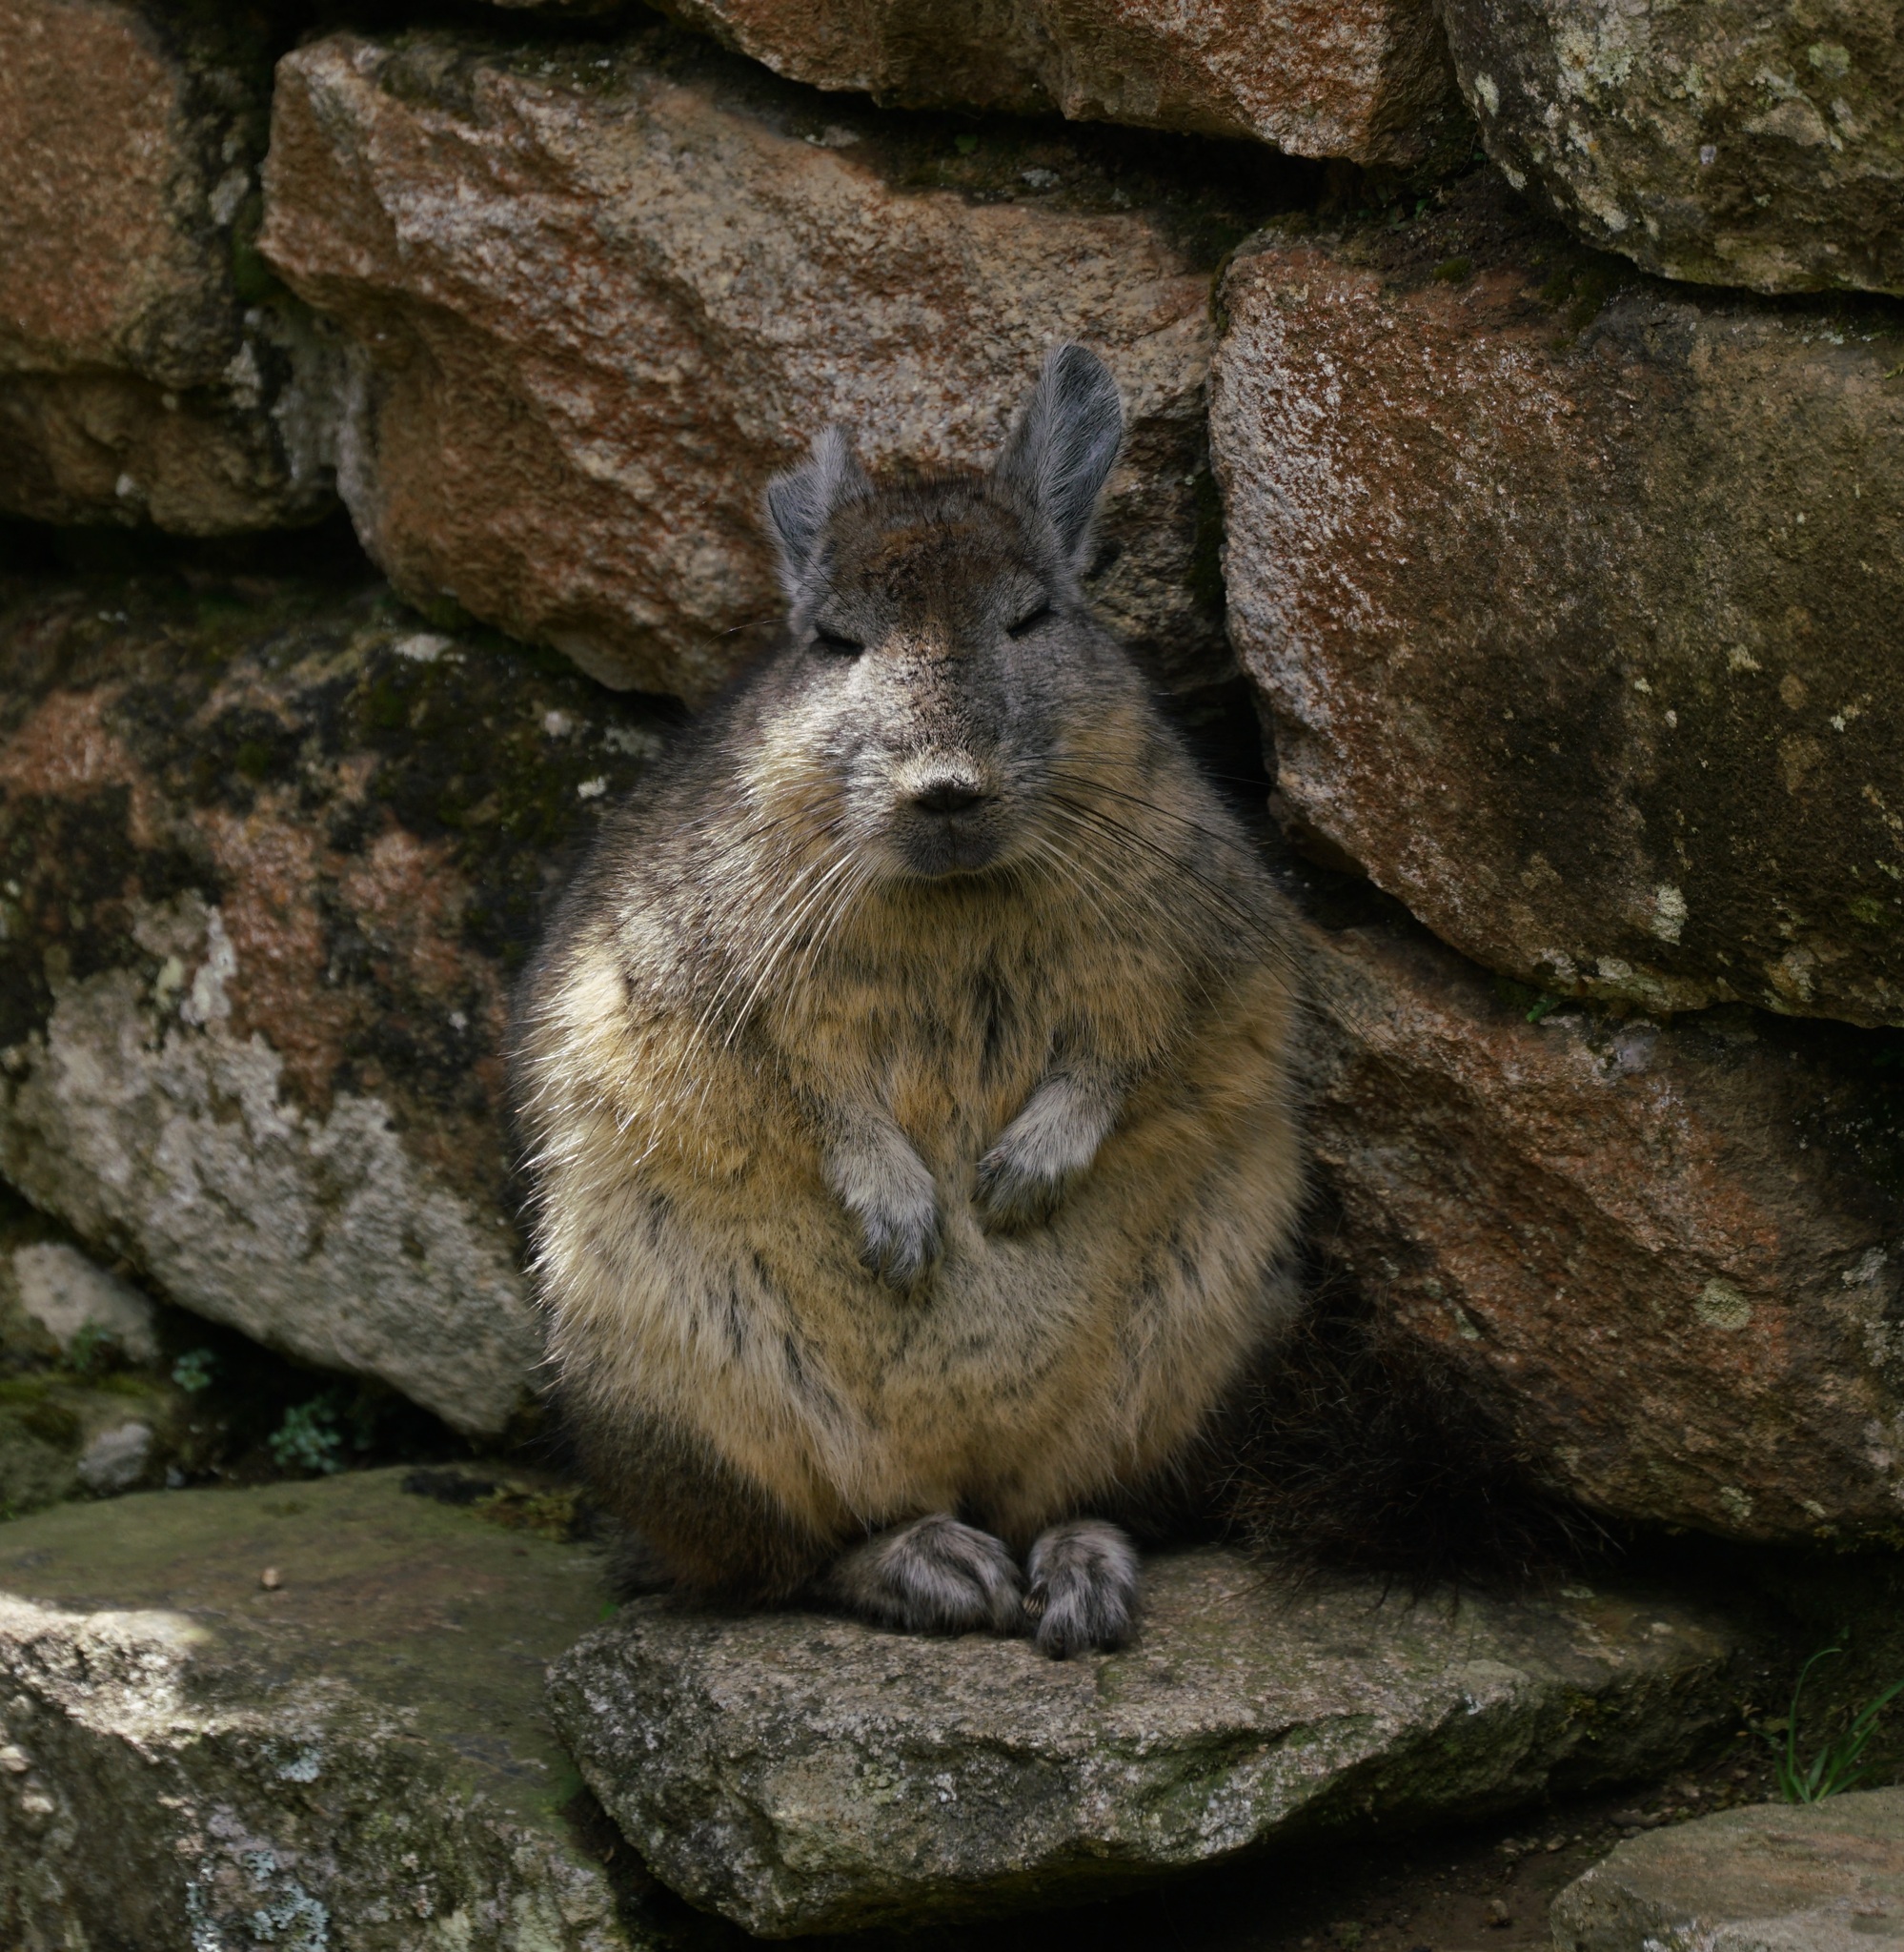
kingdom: Animalia
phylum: Chordata
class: Mammalia
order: Rodentia
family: Chinchillidae
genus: Lagidium
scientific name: Lagidium viscacia
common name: Southern viscacha
